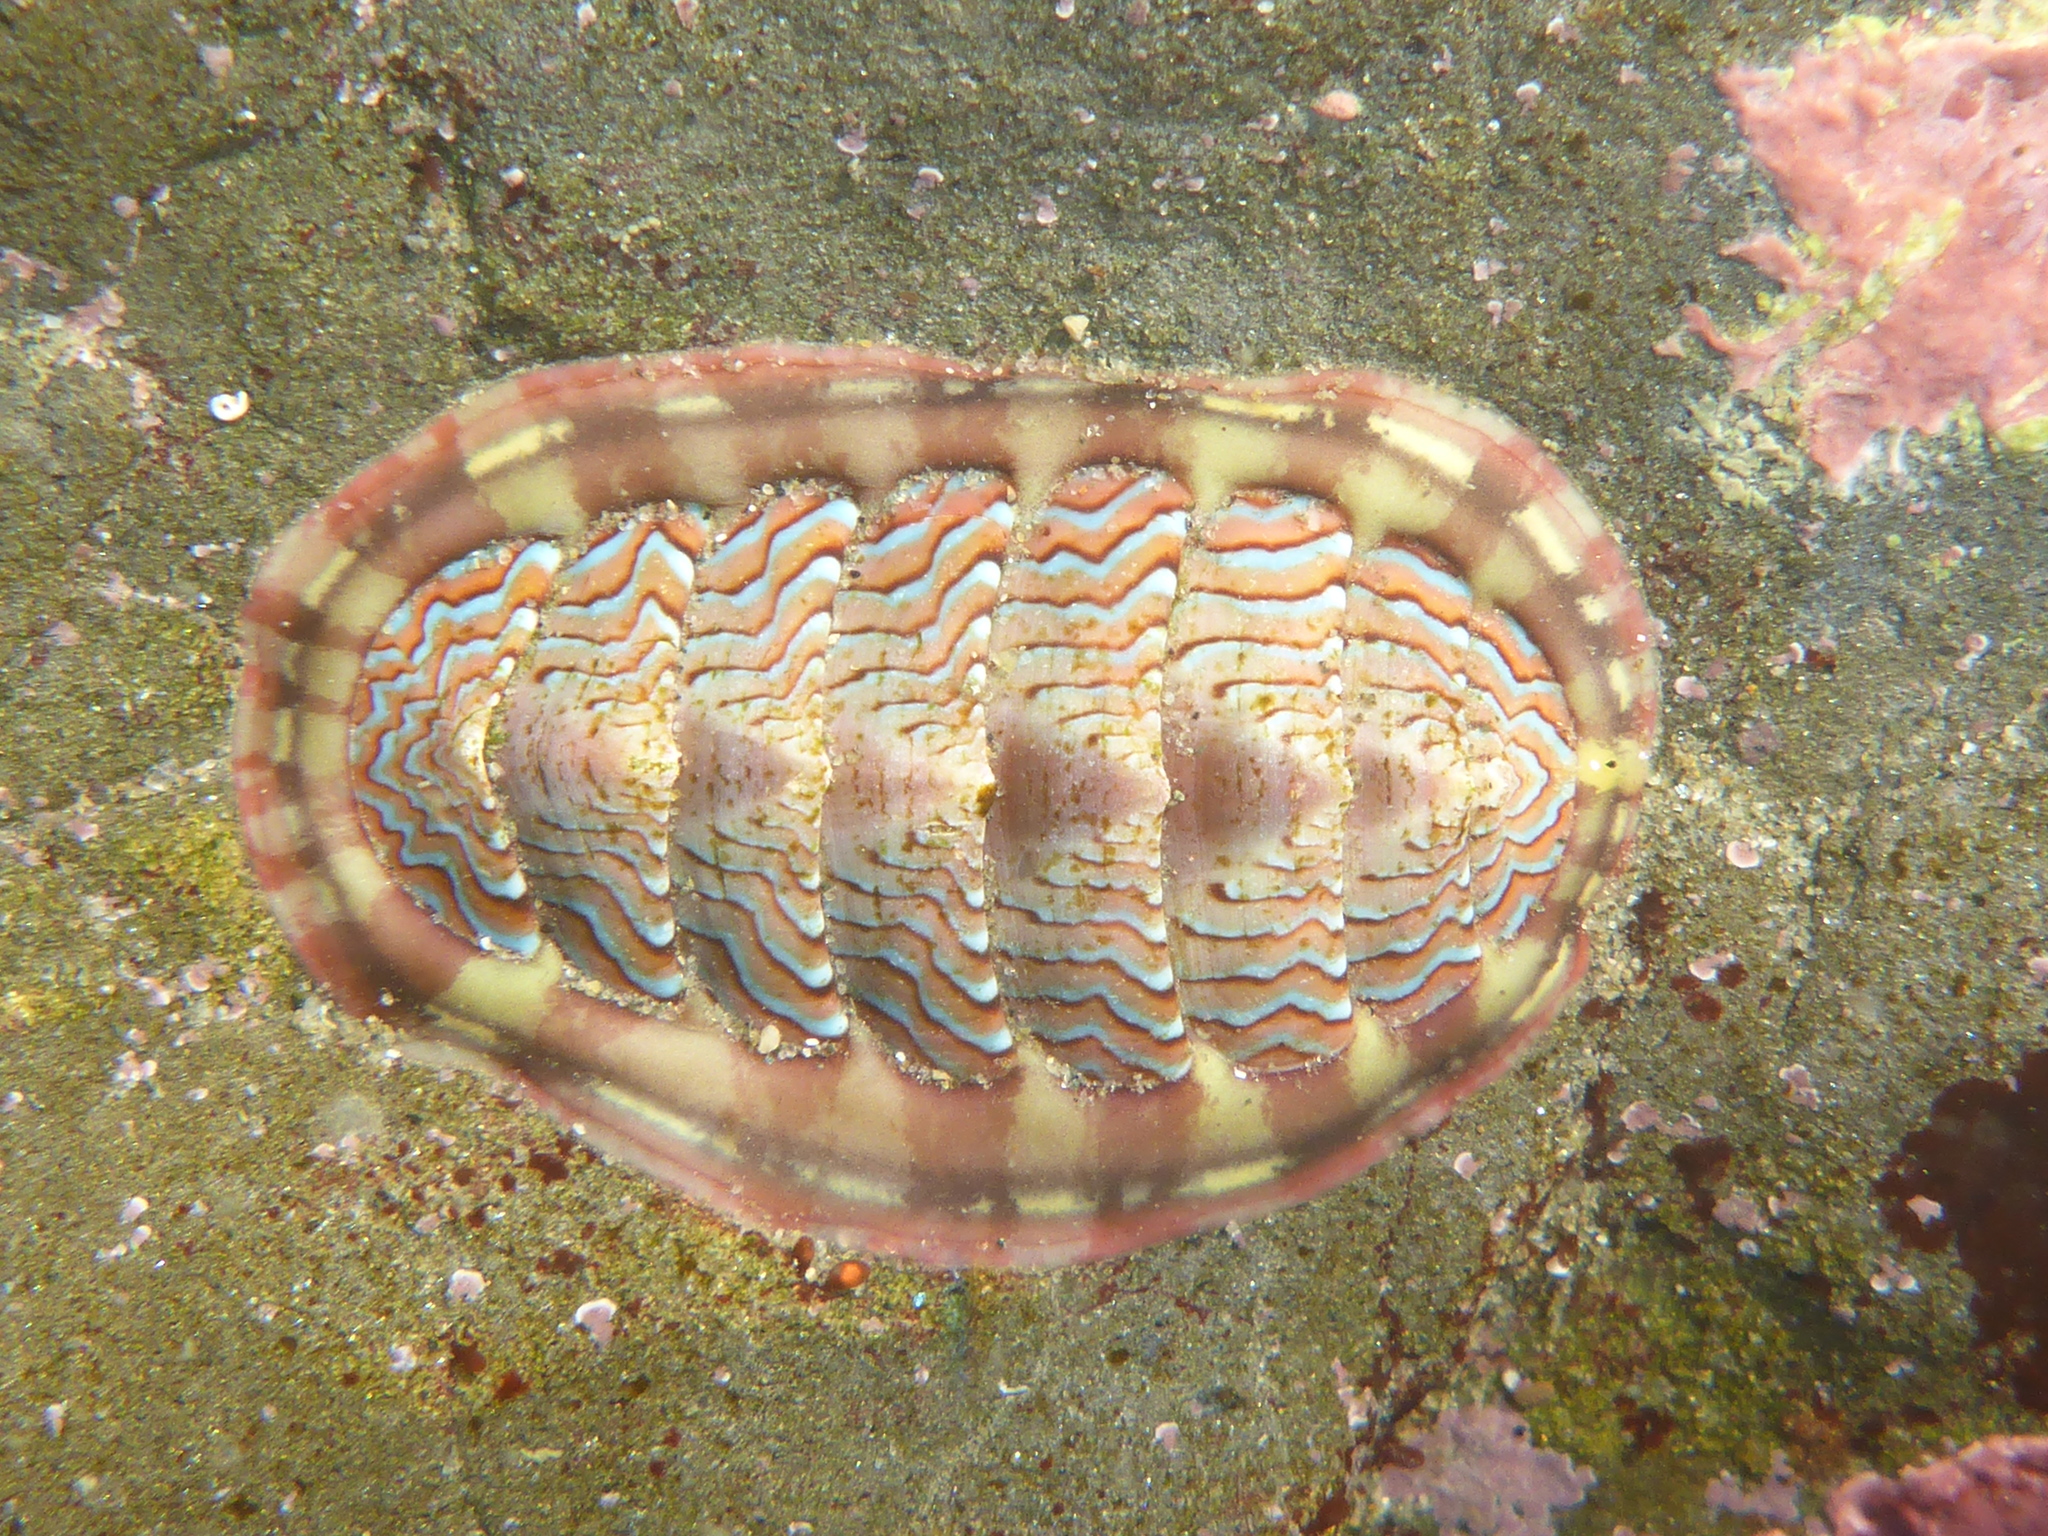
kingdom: Animalia
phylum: Mollusca
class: Polyplacophora
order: Chitonida
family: Tonicellidae
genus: Tonicella
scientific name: Tonicella lokii
